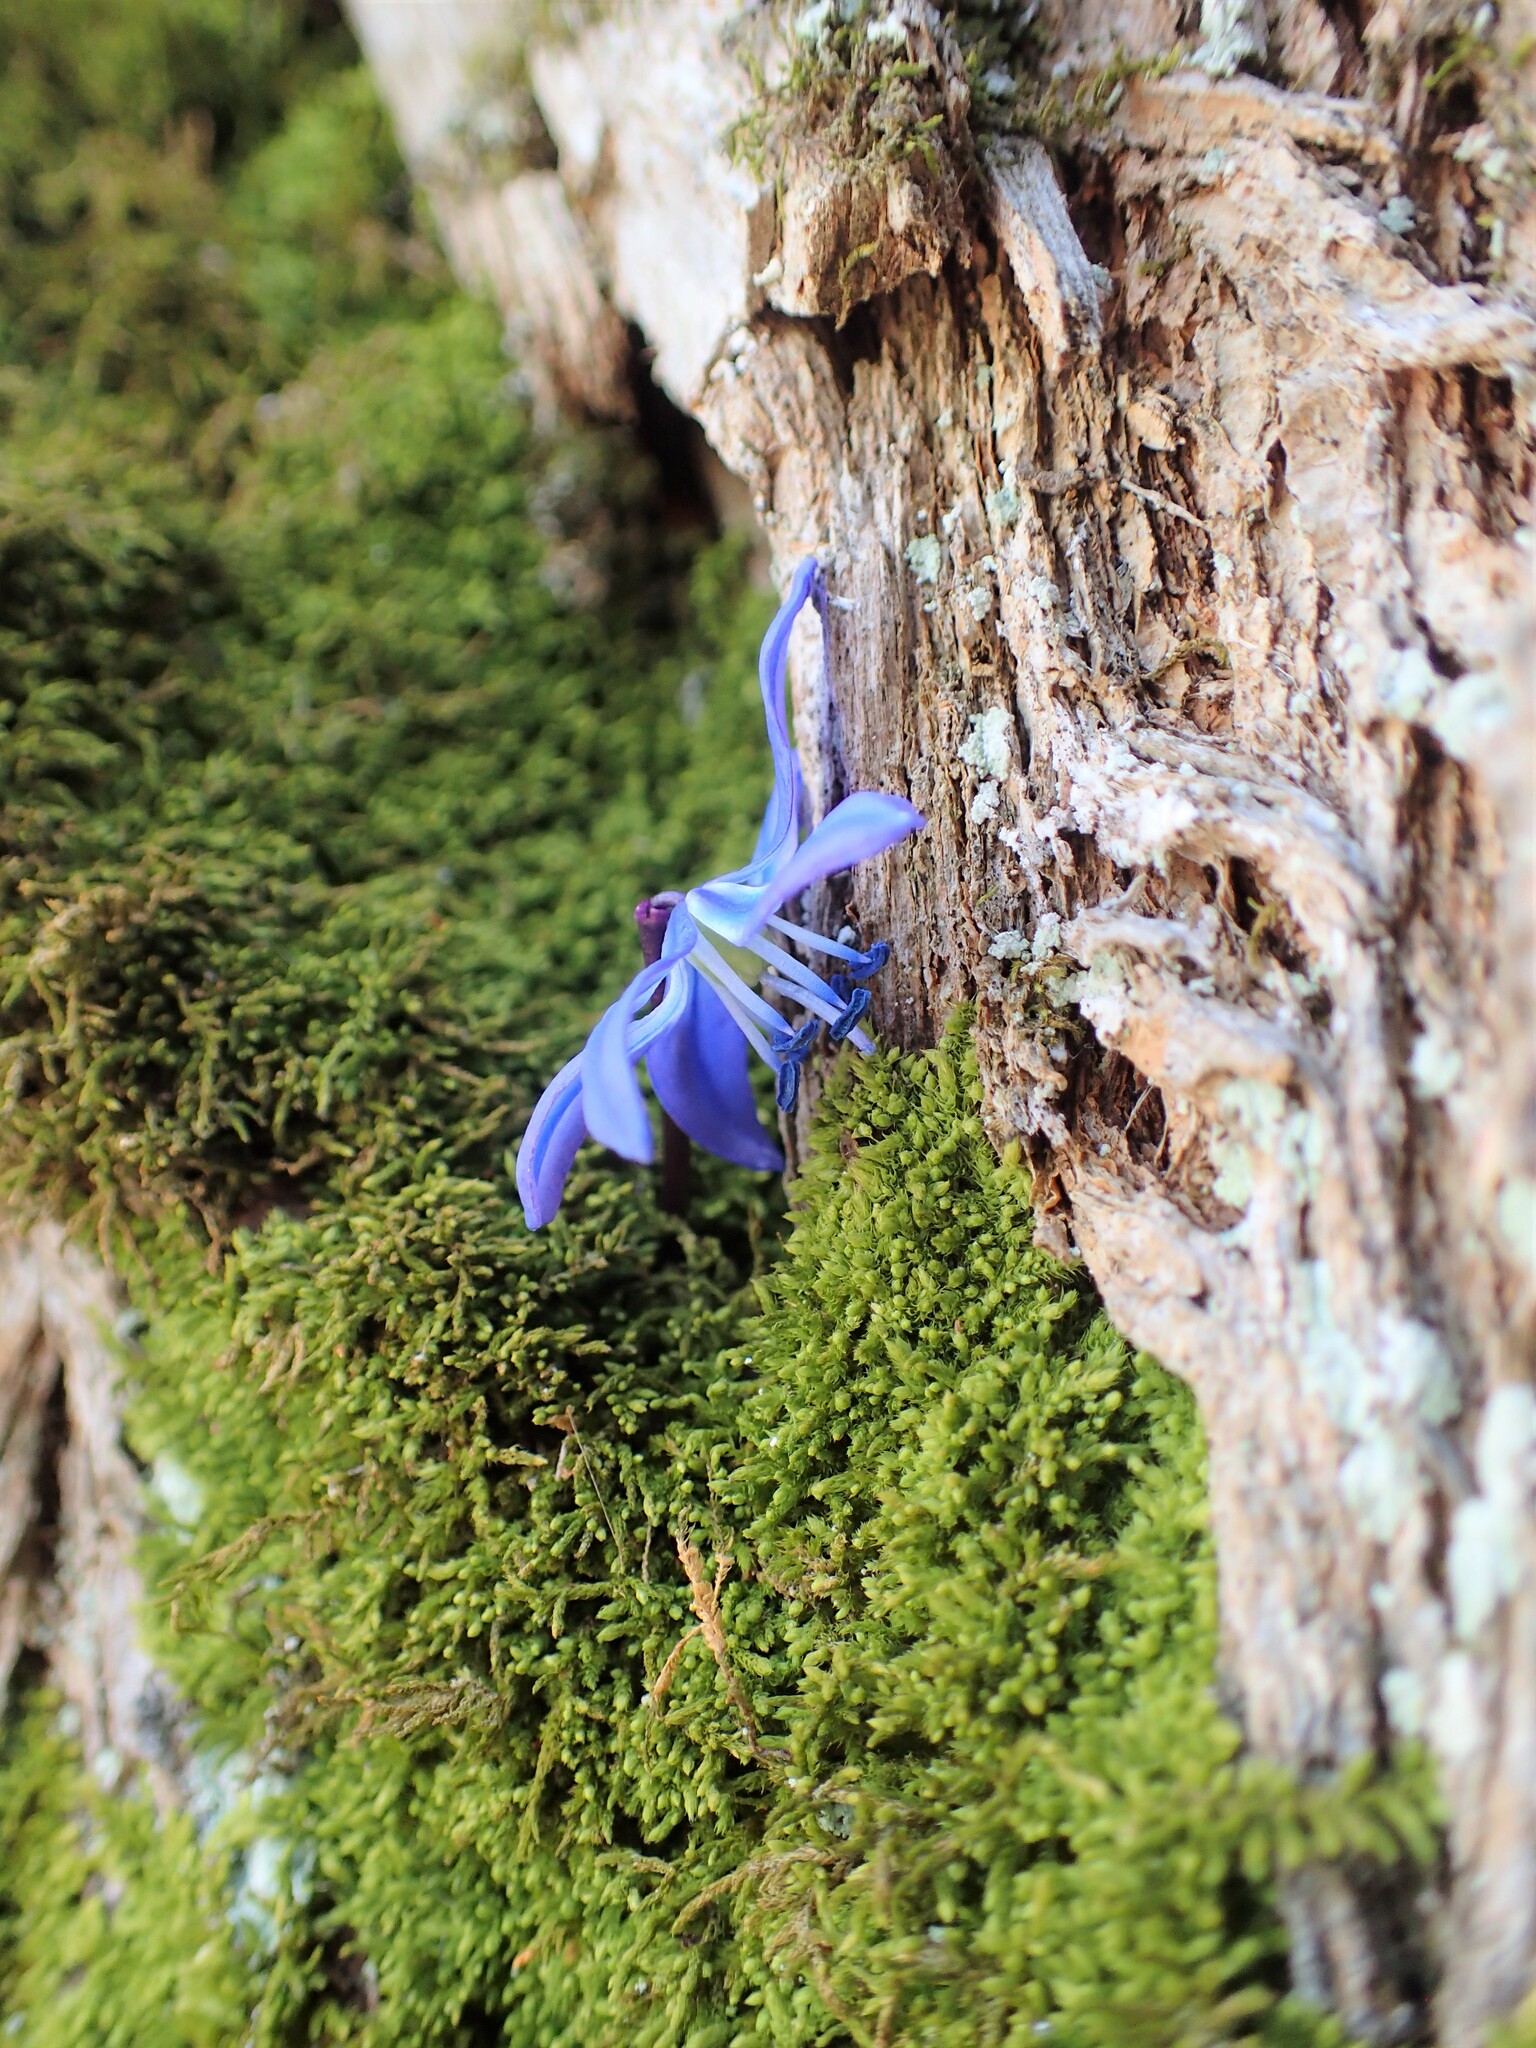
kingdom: Plantae
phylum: Tracheophyta
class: Liliopsida
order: Asparagales
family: Asparagaceae
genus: Scilla
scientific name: Scilla siberica
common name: Siberian squill
